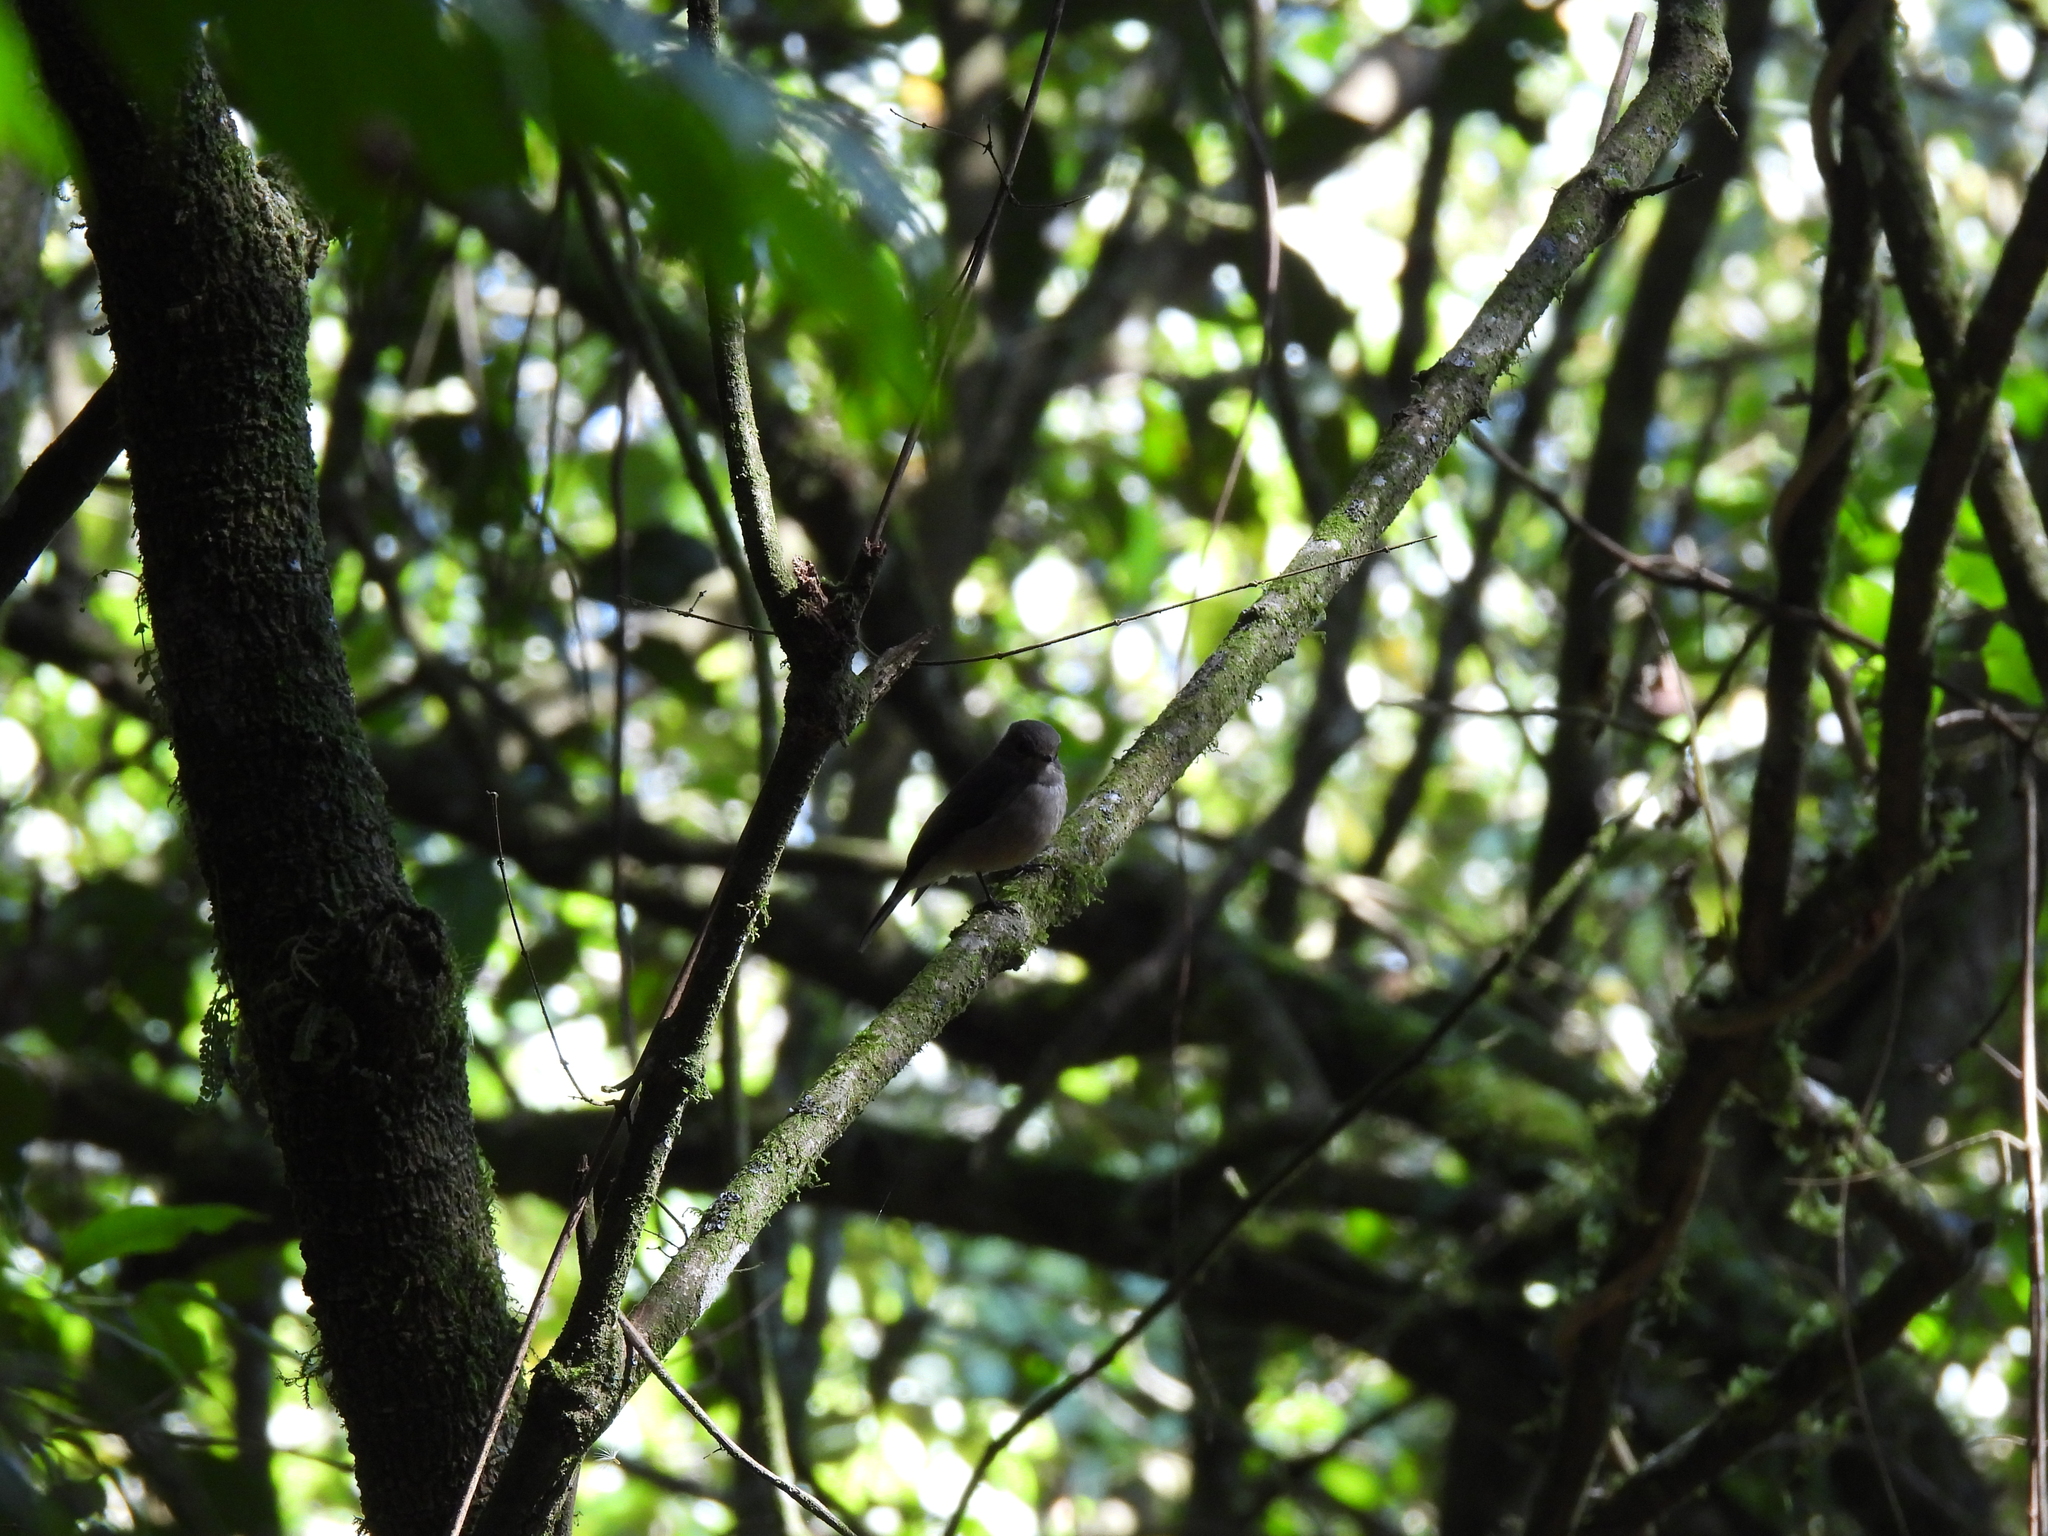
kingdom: Animalia
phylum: Chordata
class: Aves
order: Passeriformes
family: Muscicapidae
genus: Muscicapa
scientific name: Muscicapa adusta
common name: African dusky flycatcher
